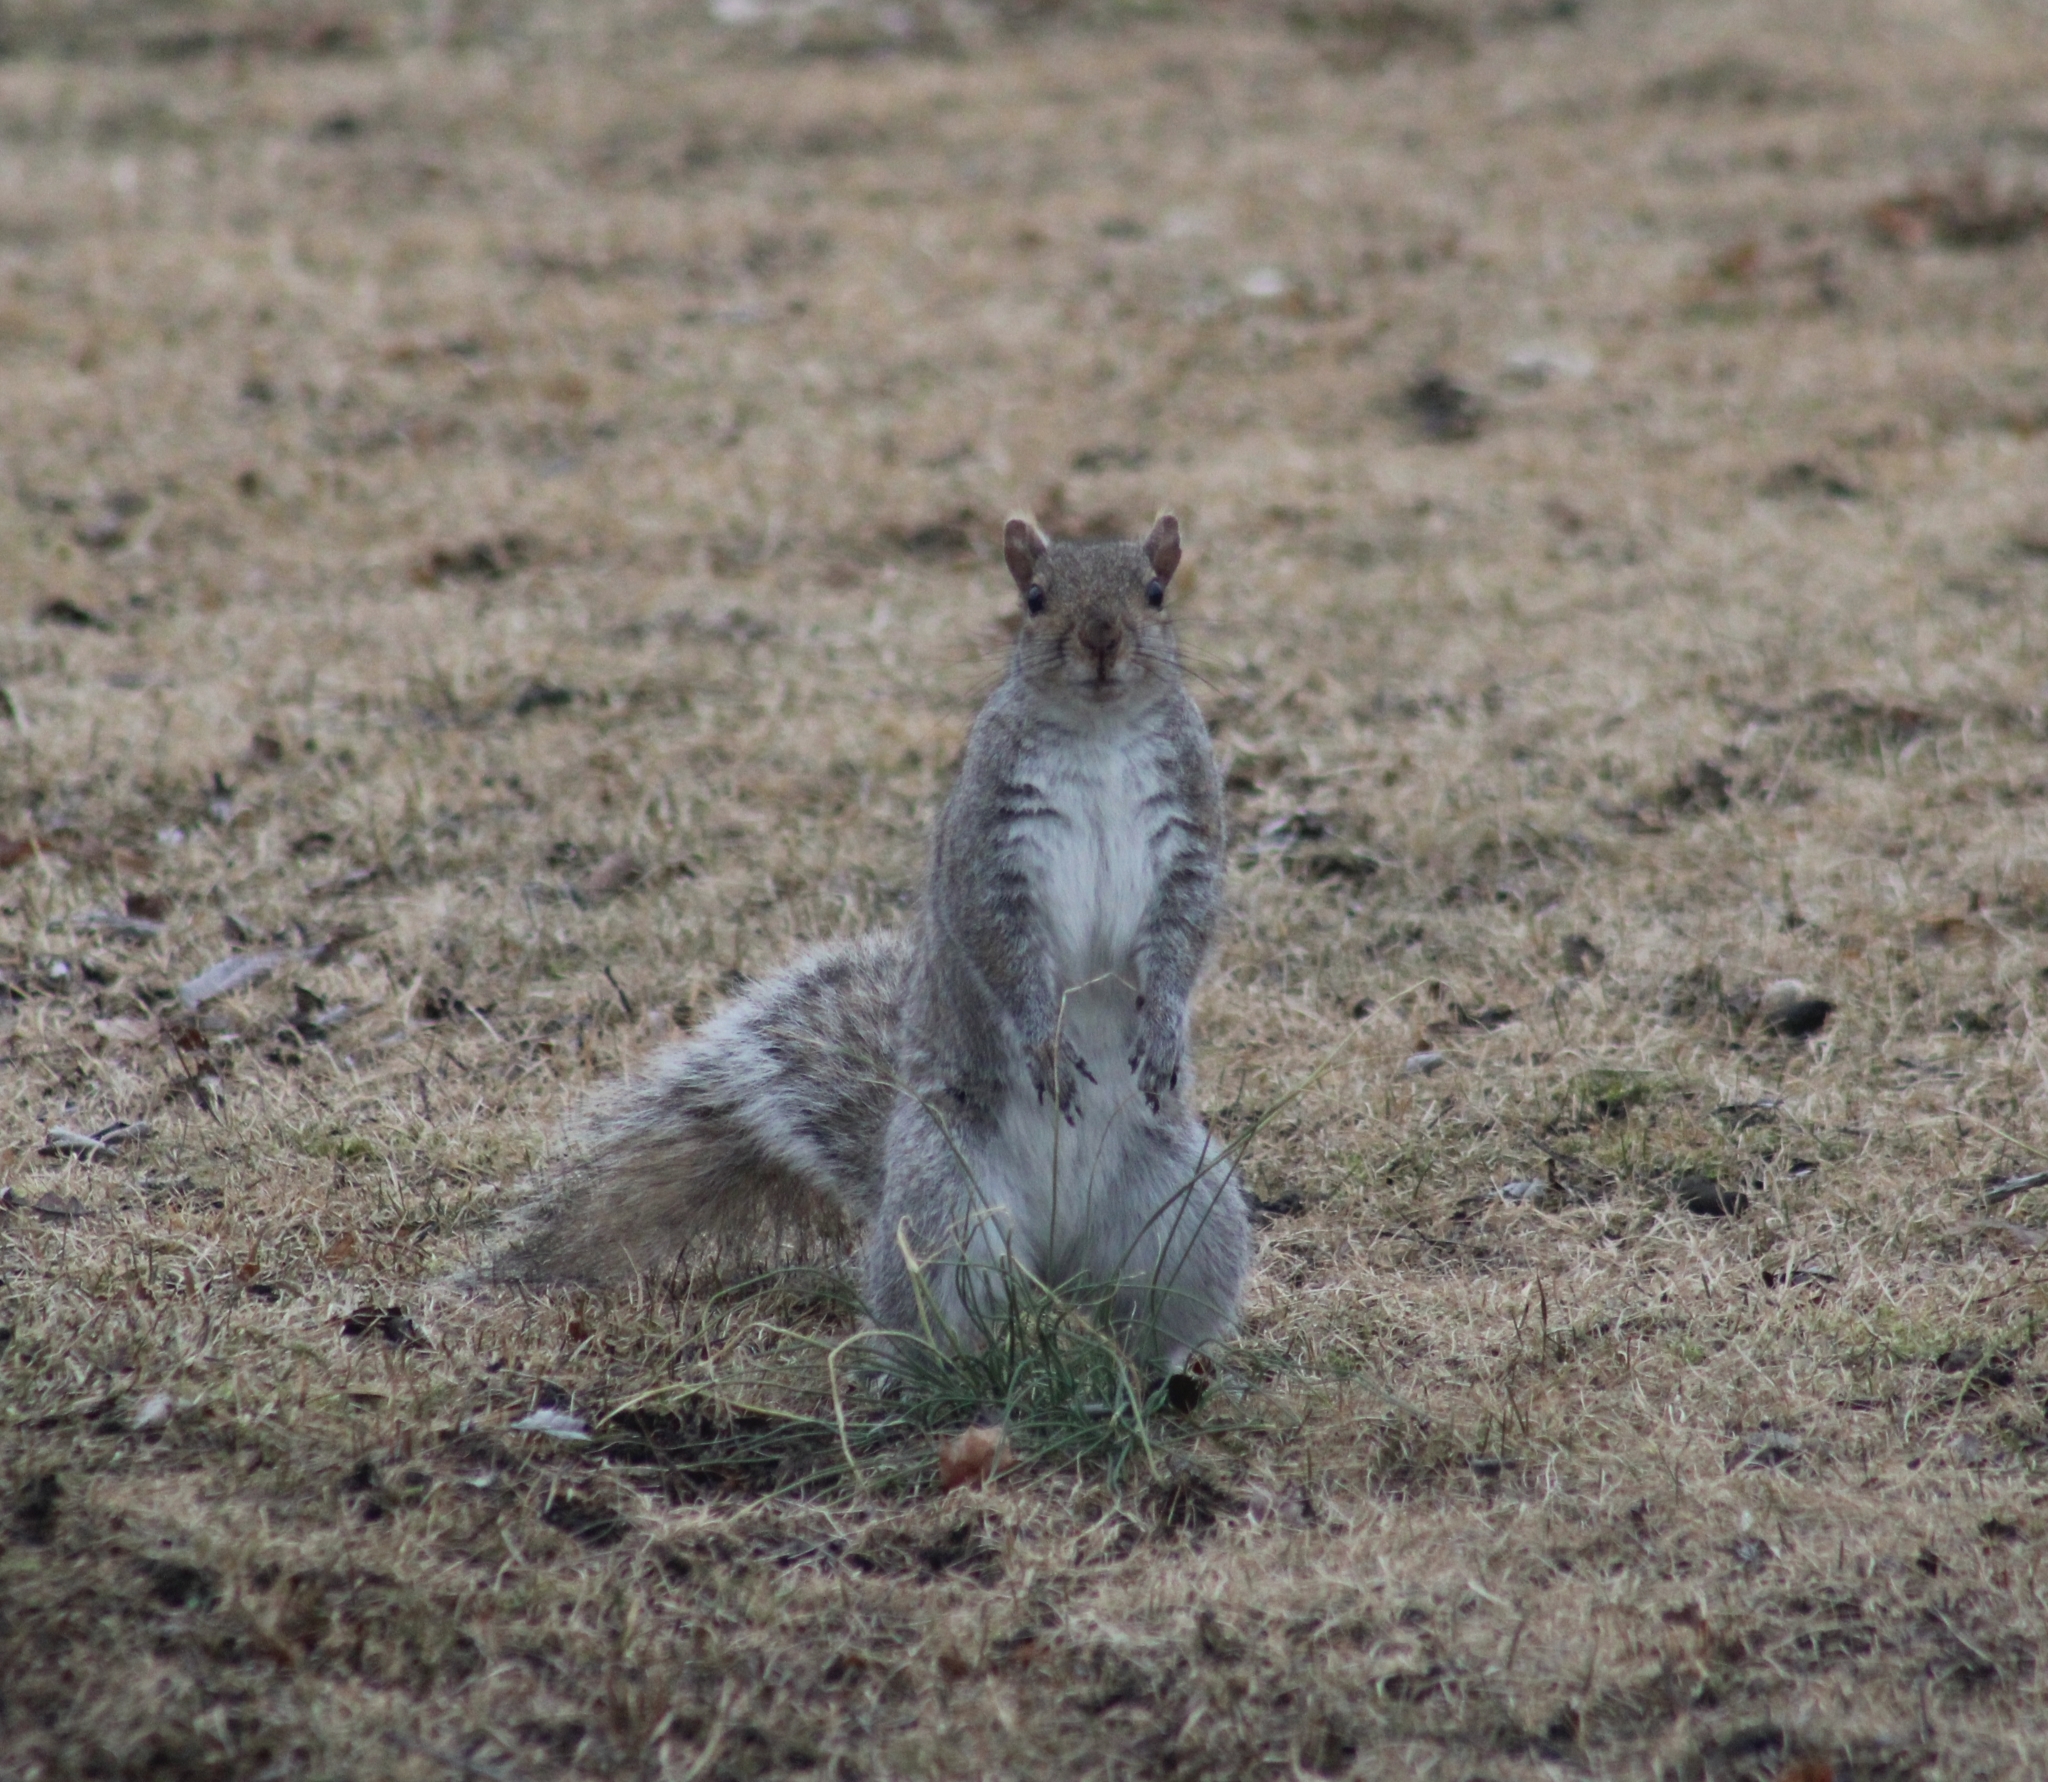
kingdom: Animalia
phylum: Chordata
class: Mammalia
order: Rodentia
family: Sciuridae
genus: Sciurus
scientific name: Sciurus carolinensis
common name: Eastern gray squirrel
